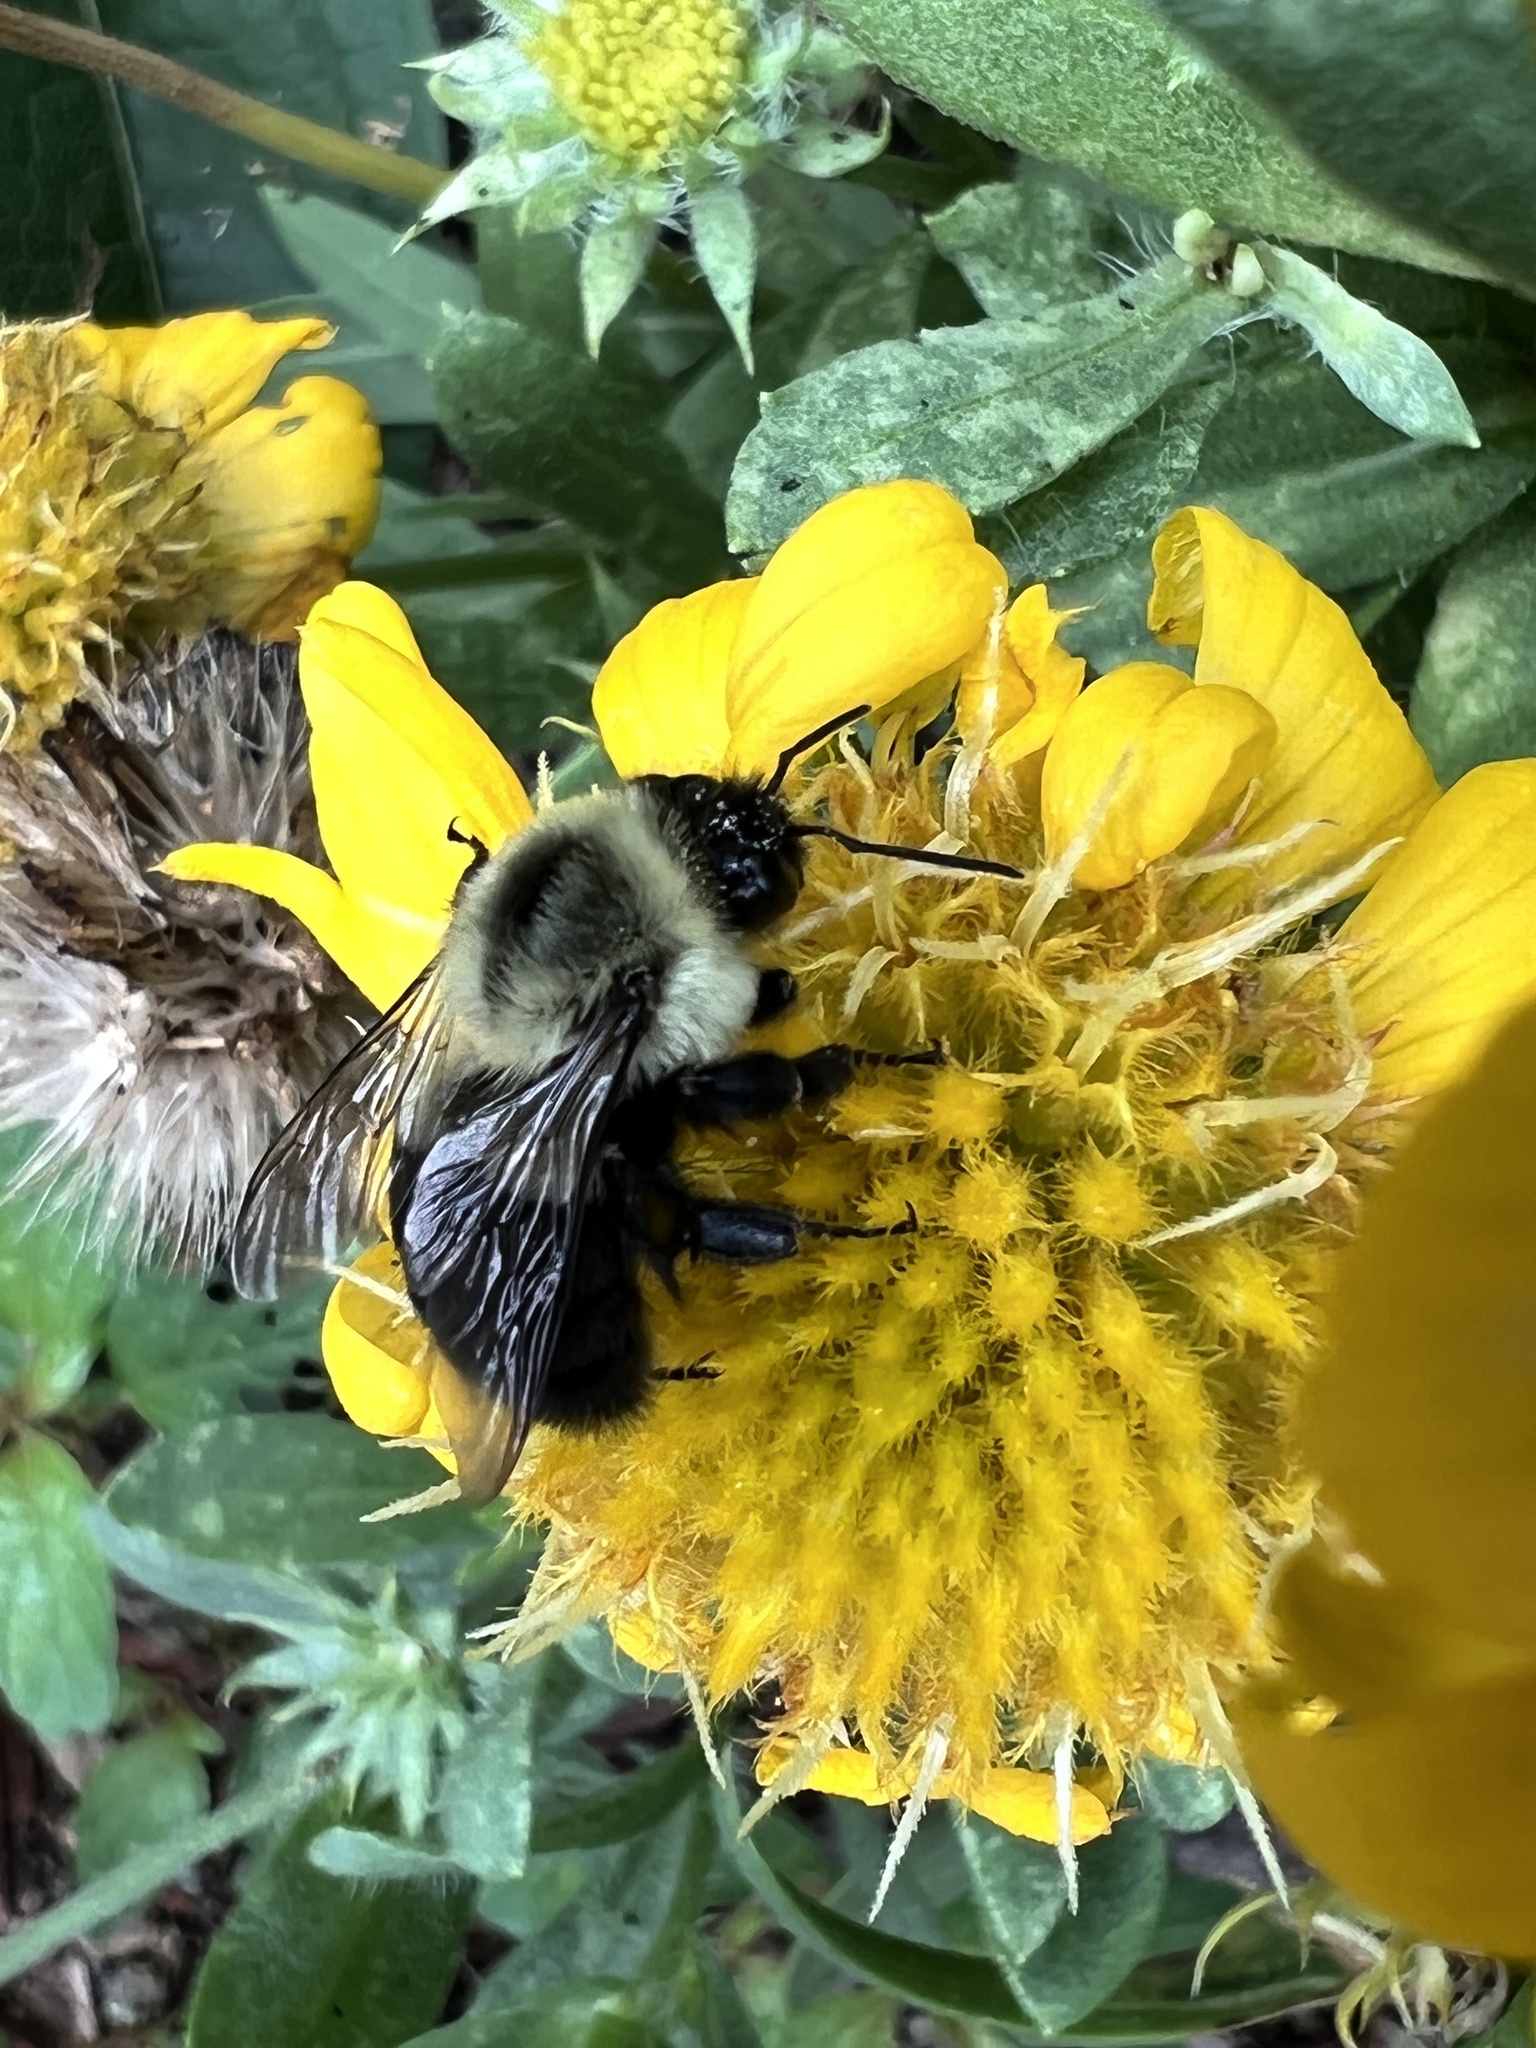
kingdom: Animalia
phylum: Arthropoda
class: Insecta
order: Hymenoptera
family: Apidae
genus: Bombus
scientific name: Bombus impatiens
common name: Common eastern bumble bee
